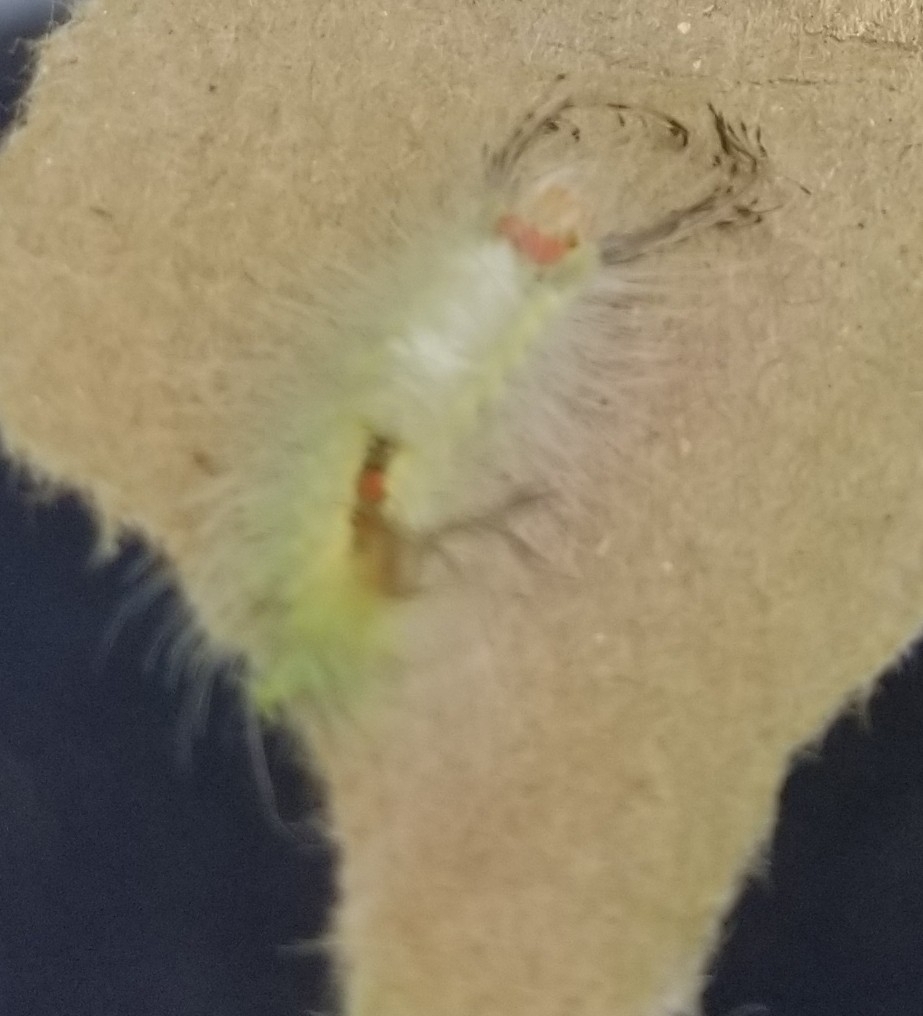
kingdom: Animalia
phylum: Arthropoda
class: Insecta
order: Lepidoptera
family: Erebidae
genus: Orgyia
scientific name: Orgyia leucostigma
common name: White-marked tussock moth
